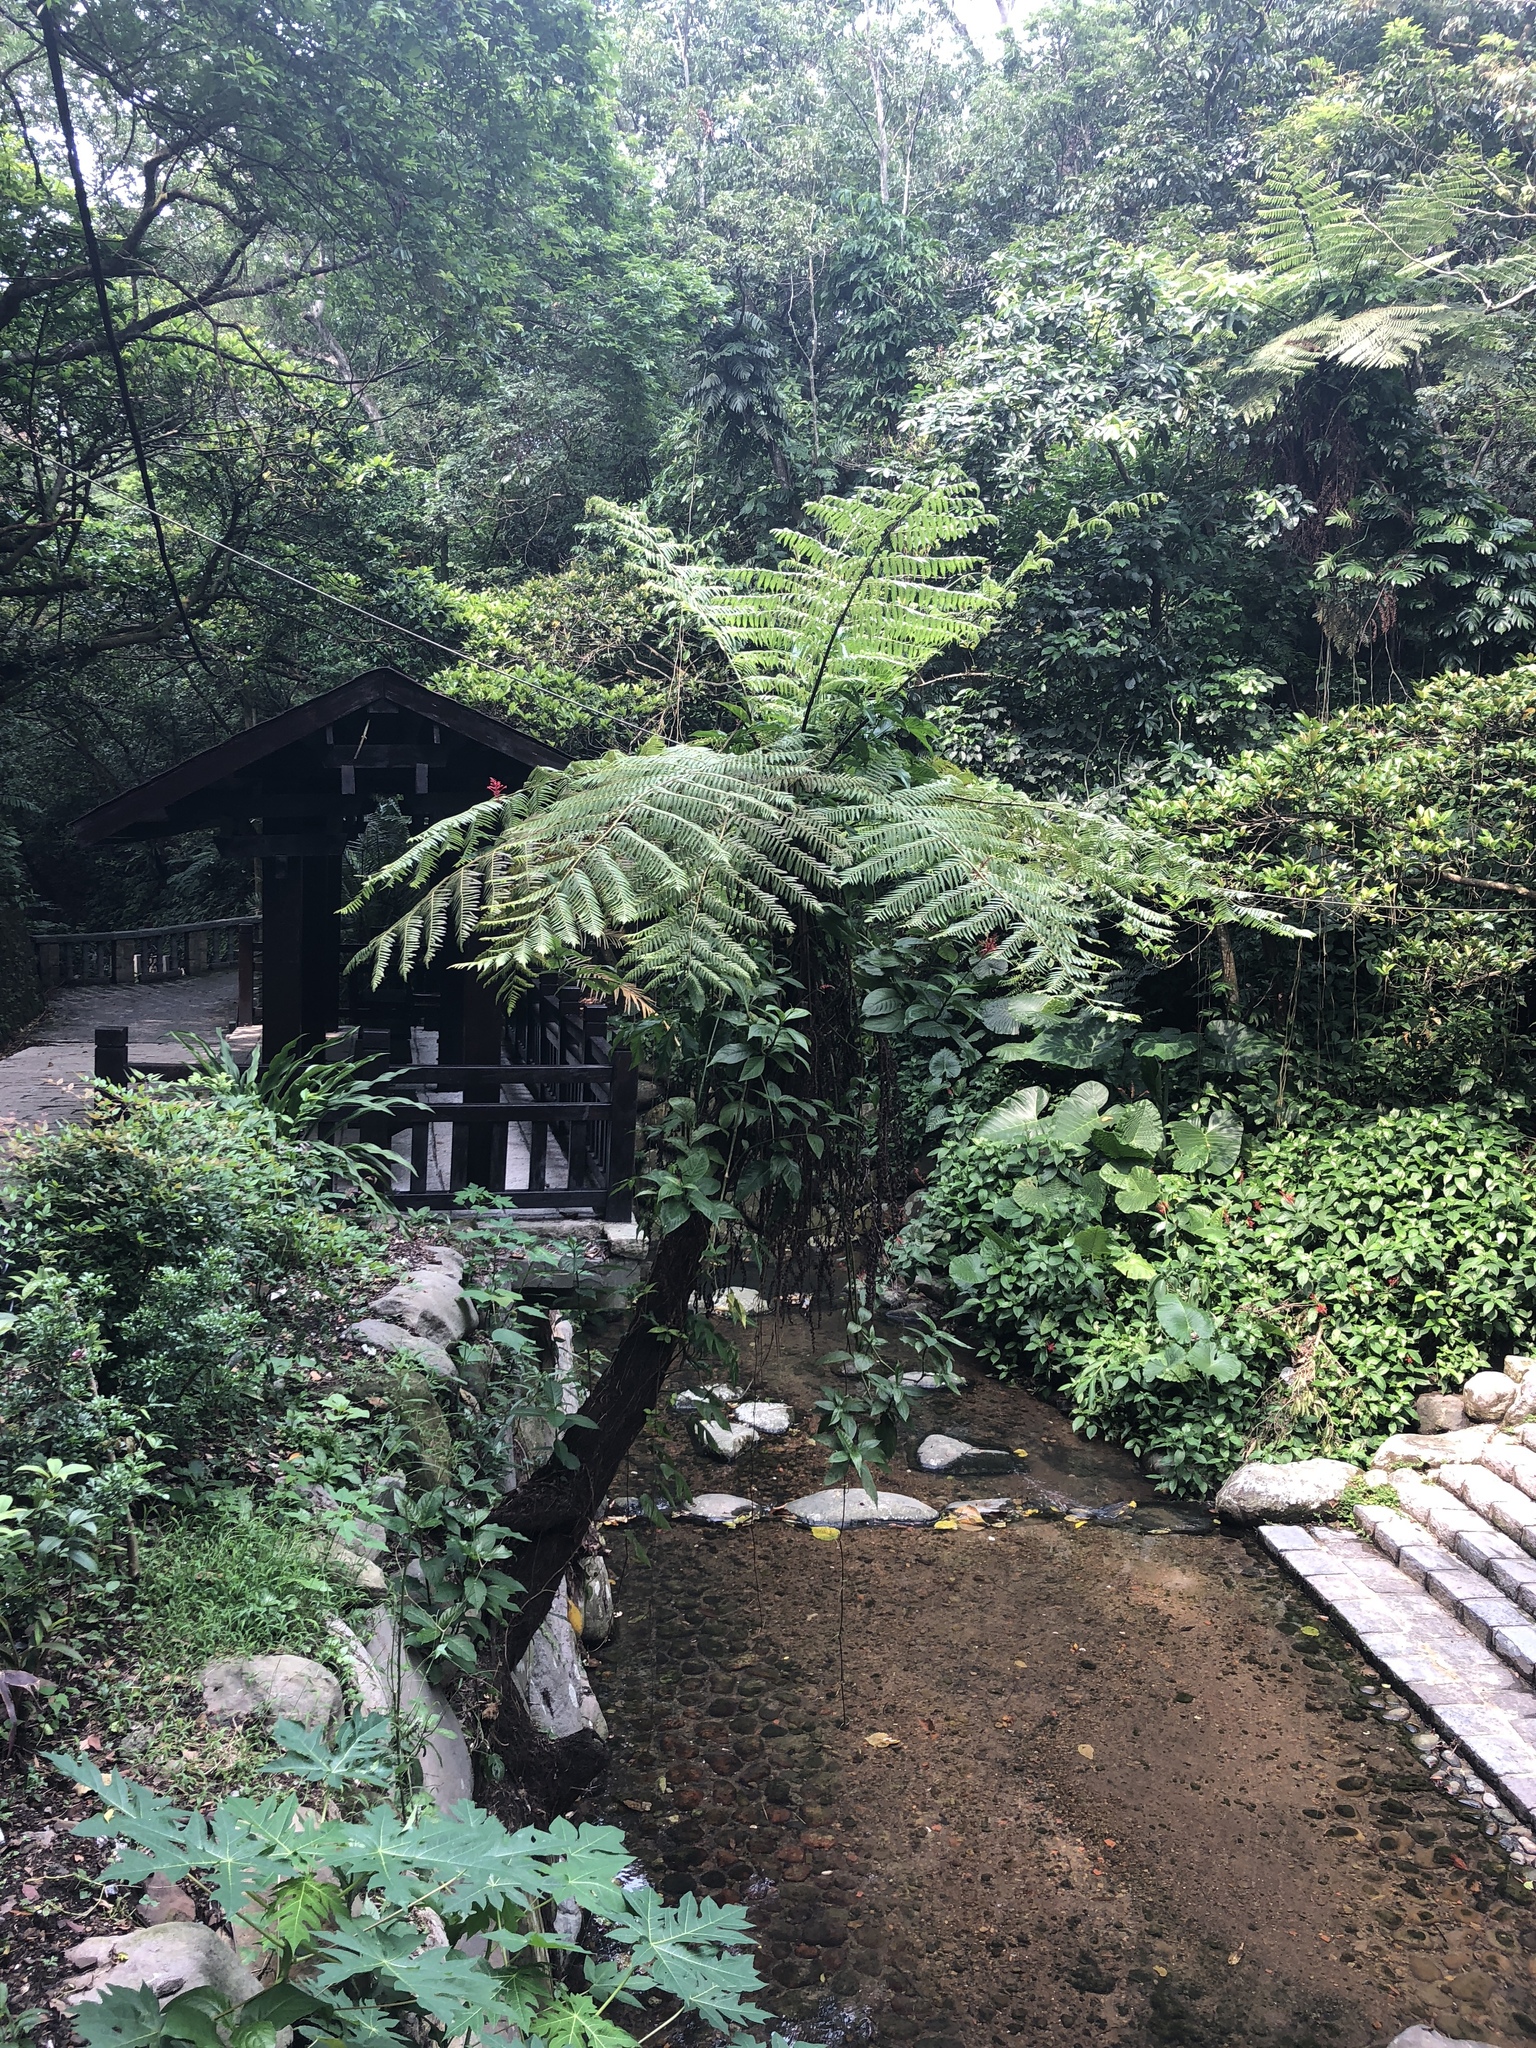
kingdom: Plantae
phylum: Tracheophyta
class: Polypodiopsida
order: Cyatheales
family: Cyatheaceae
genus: Alsophila
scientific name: Alsophila spinulosa
